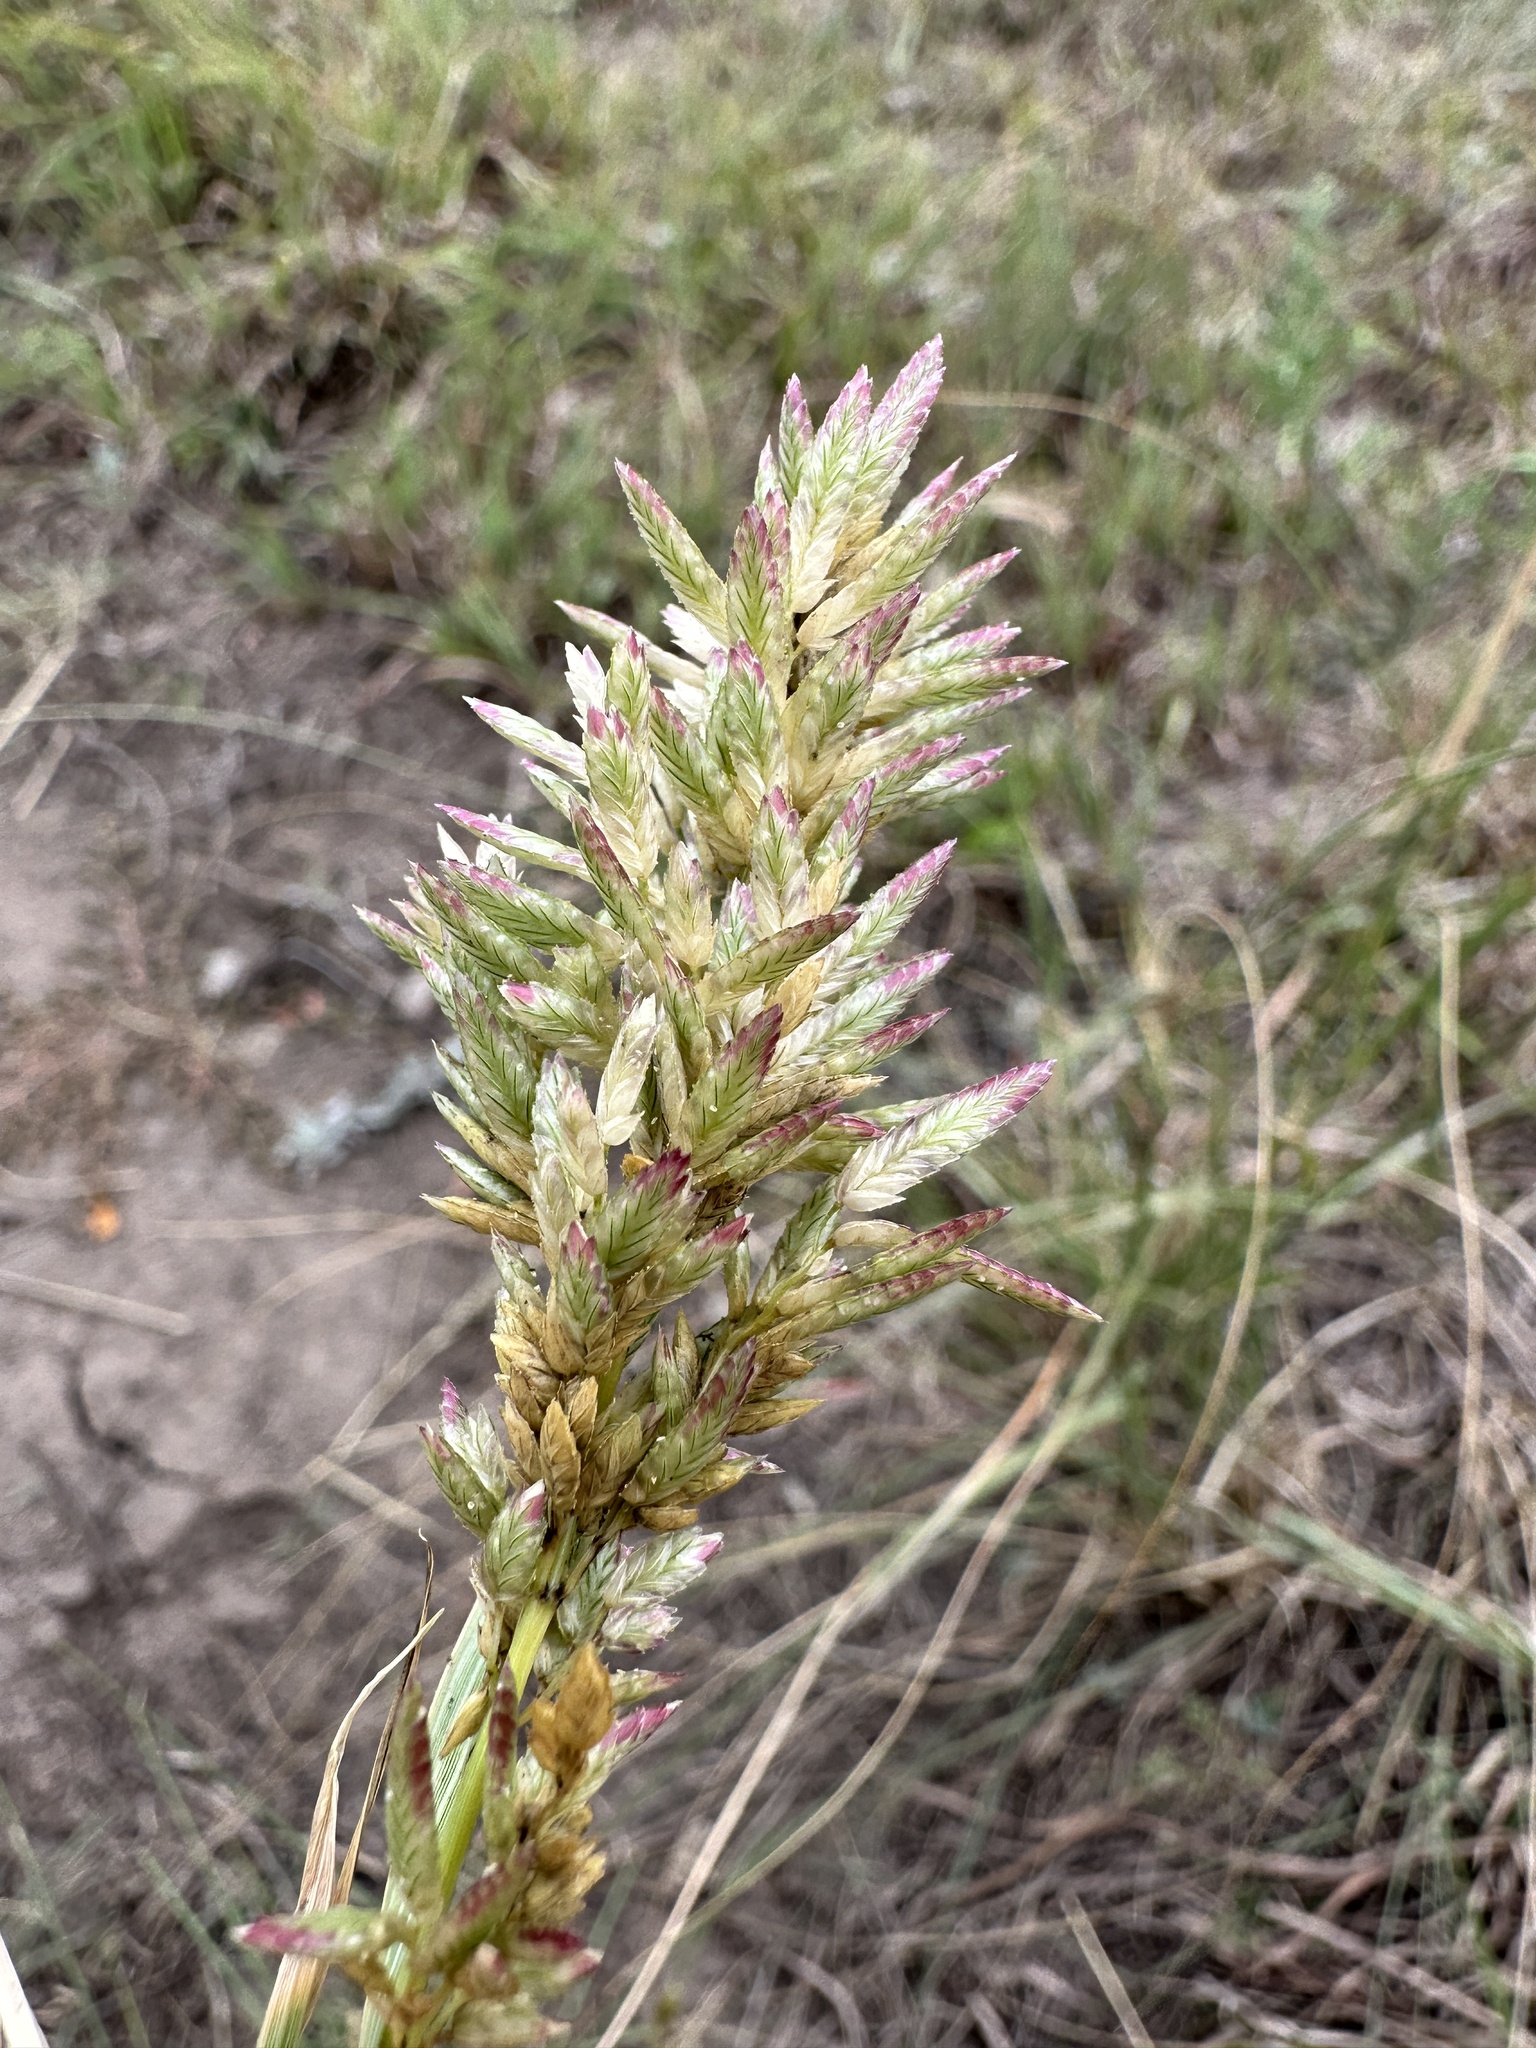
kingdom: Plantae
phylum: Tracheophyta
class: Liliopsida
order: Poales
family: Poaceae
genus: Eragrostis
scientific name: Eragrostis cilianensis
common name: Stinkgrass
